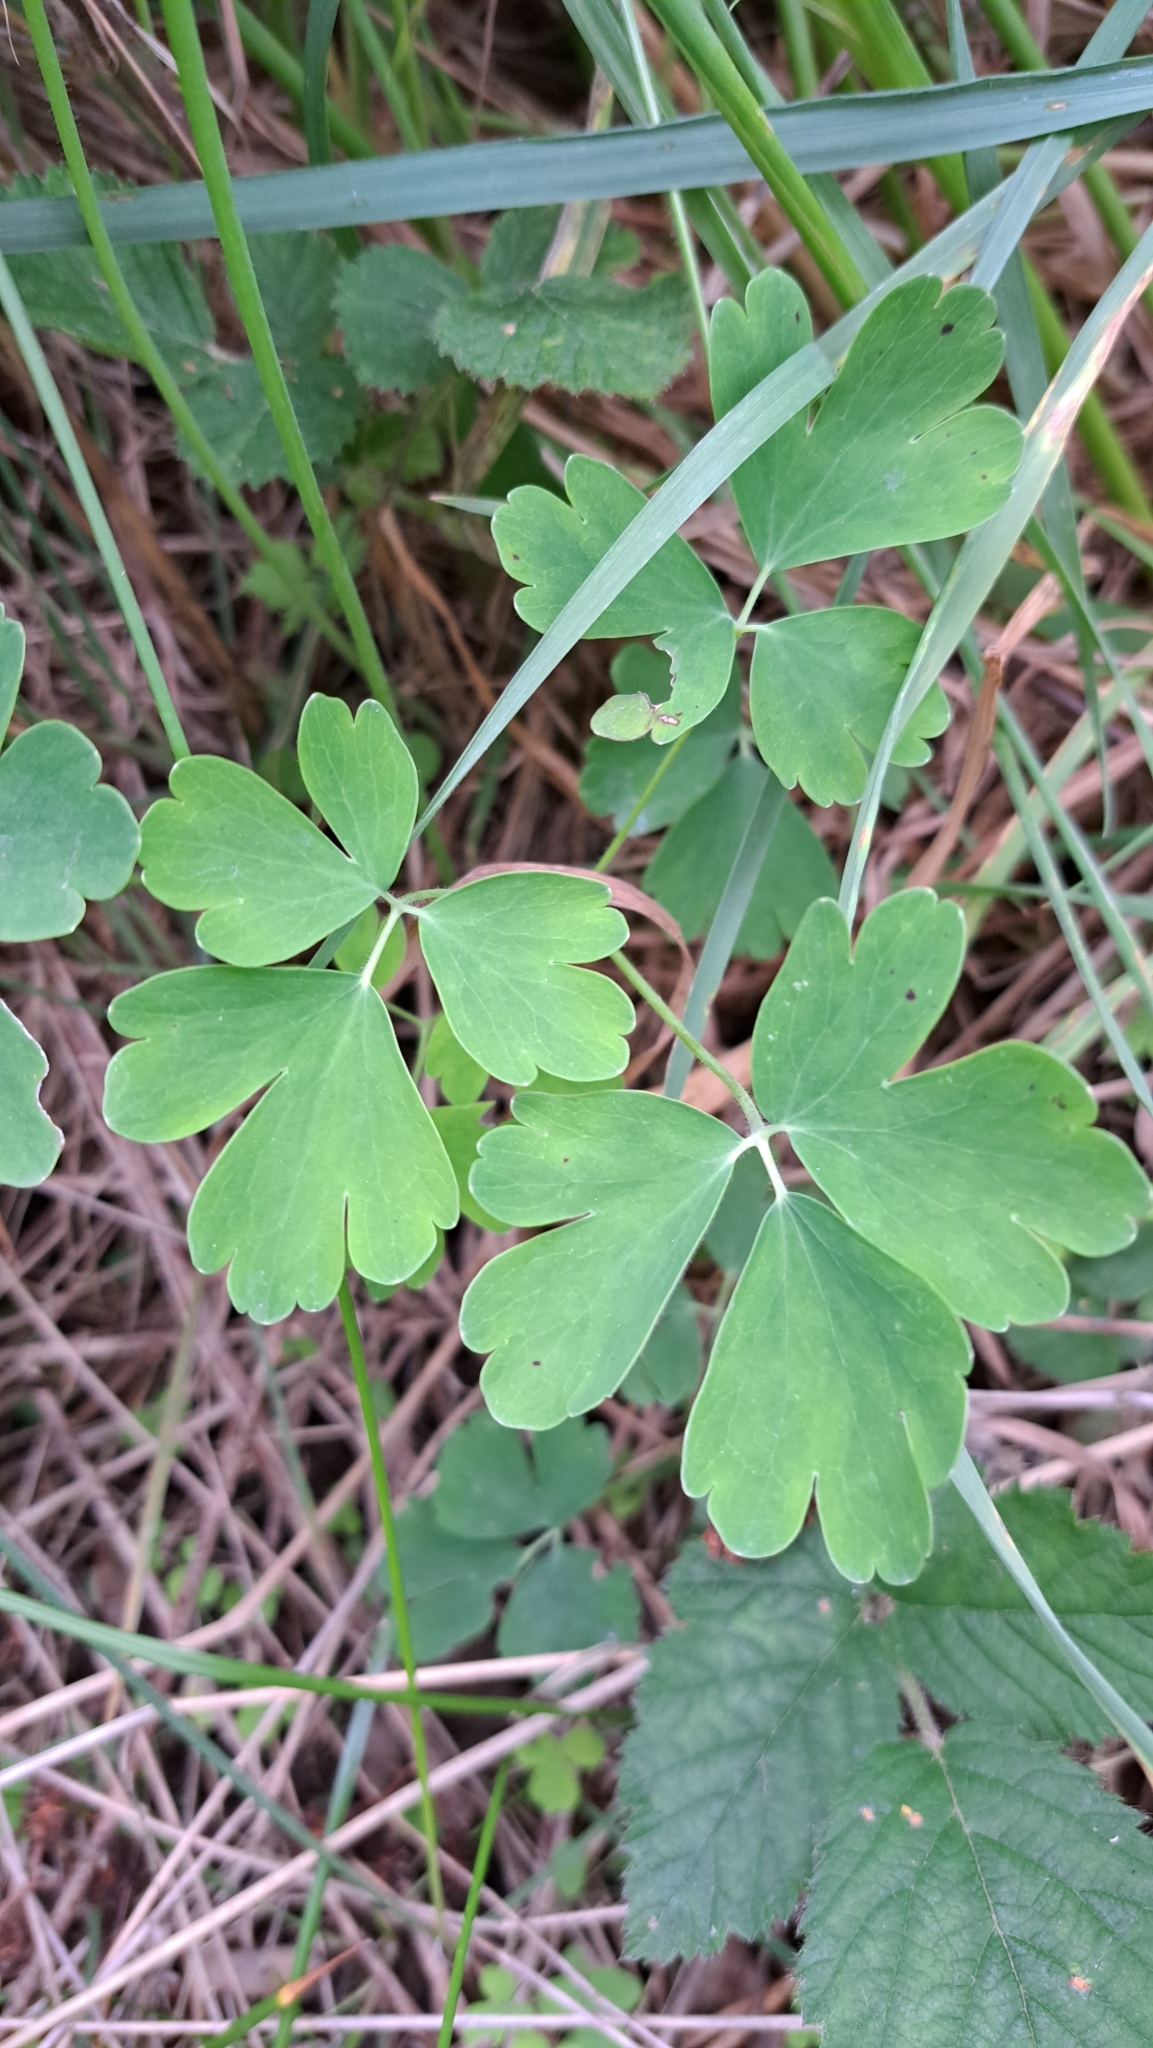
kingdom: Plantae
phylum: Tracheophyta
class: Magnoliopsida
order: Ranunculales
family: Ranunculaceae
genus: Aquilegia
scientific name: Aquilegia vulgaris
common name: Columbine
